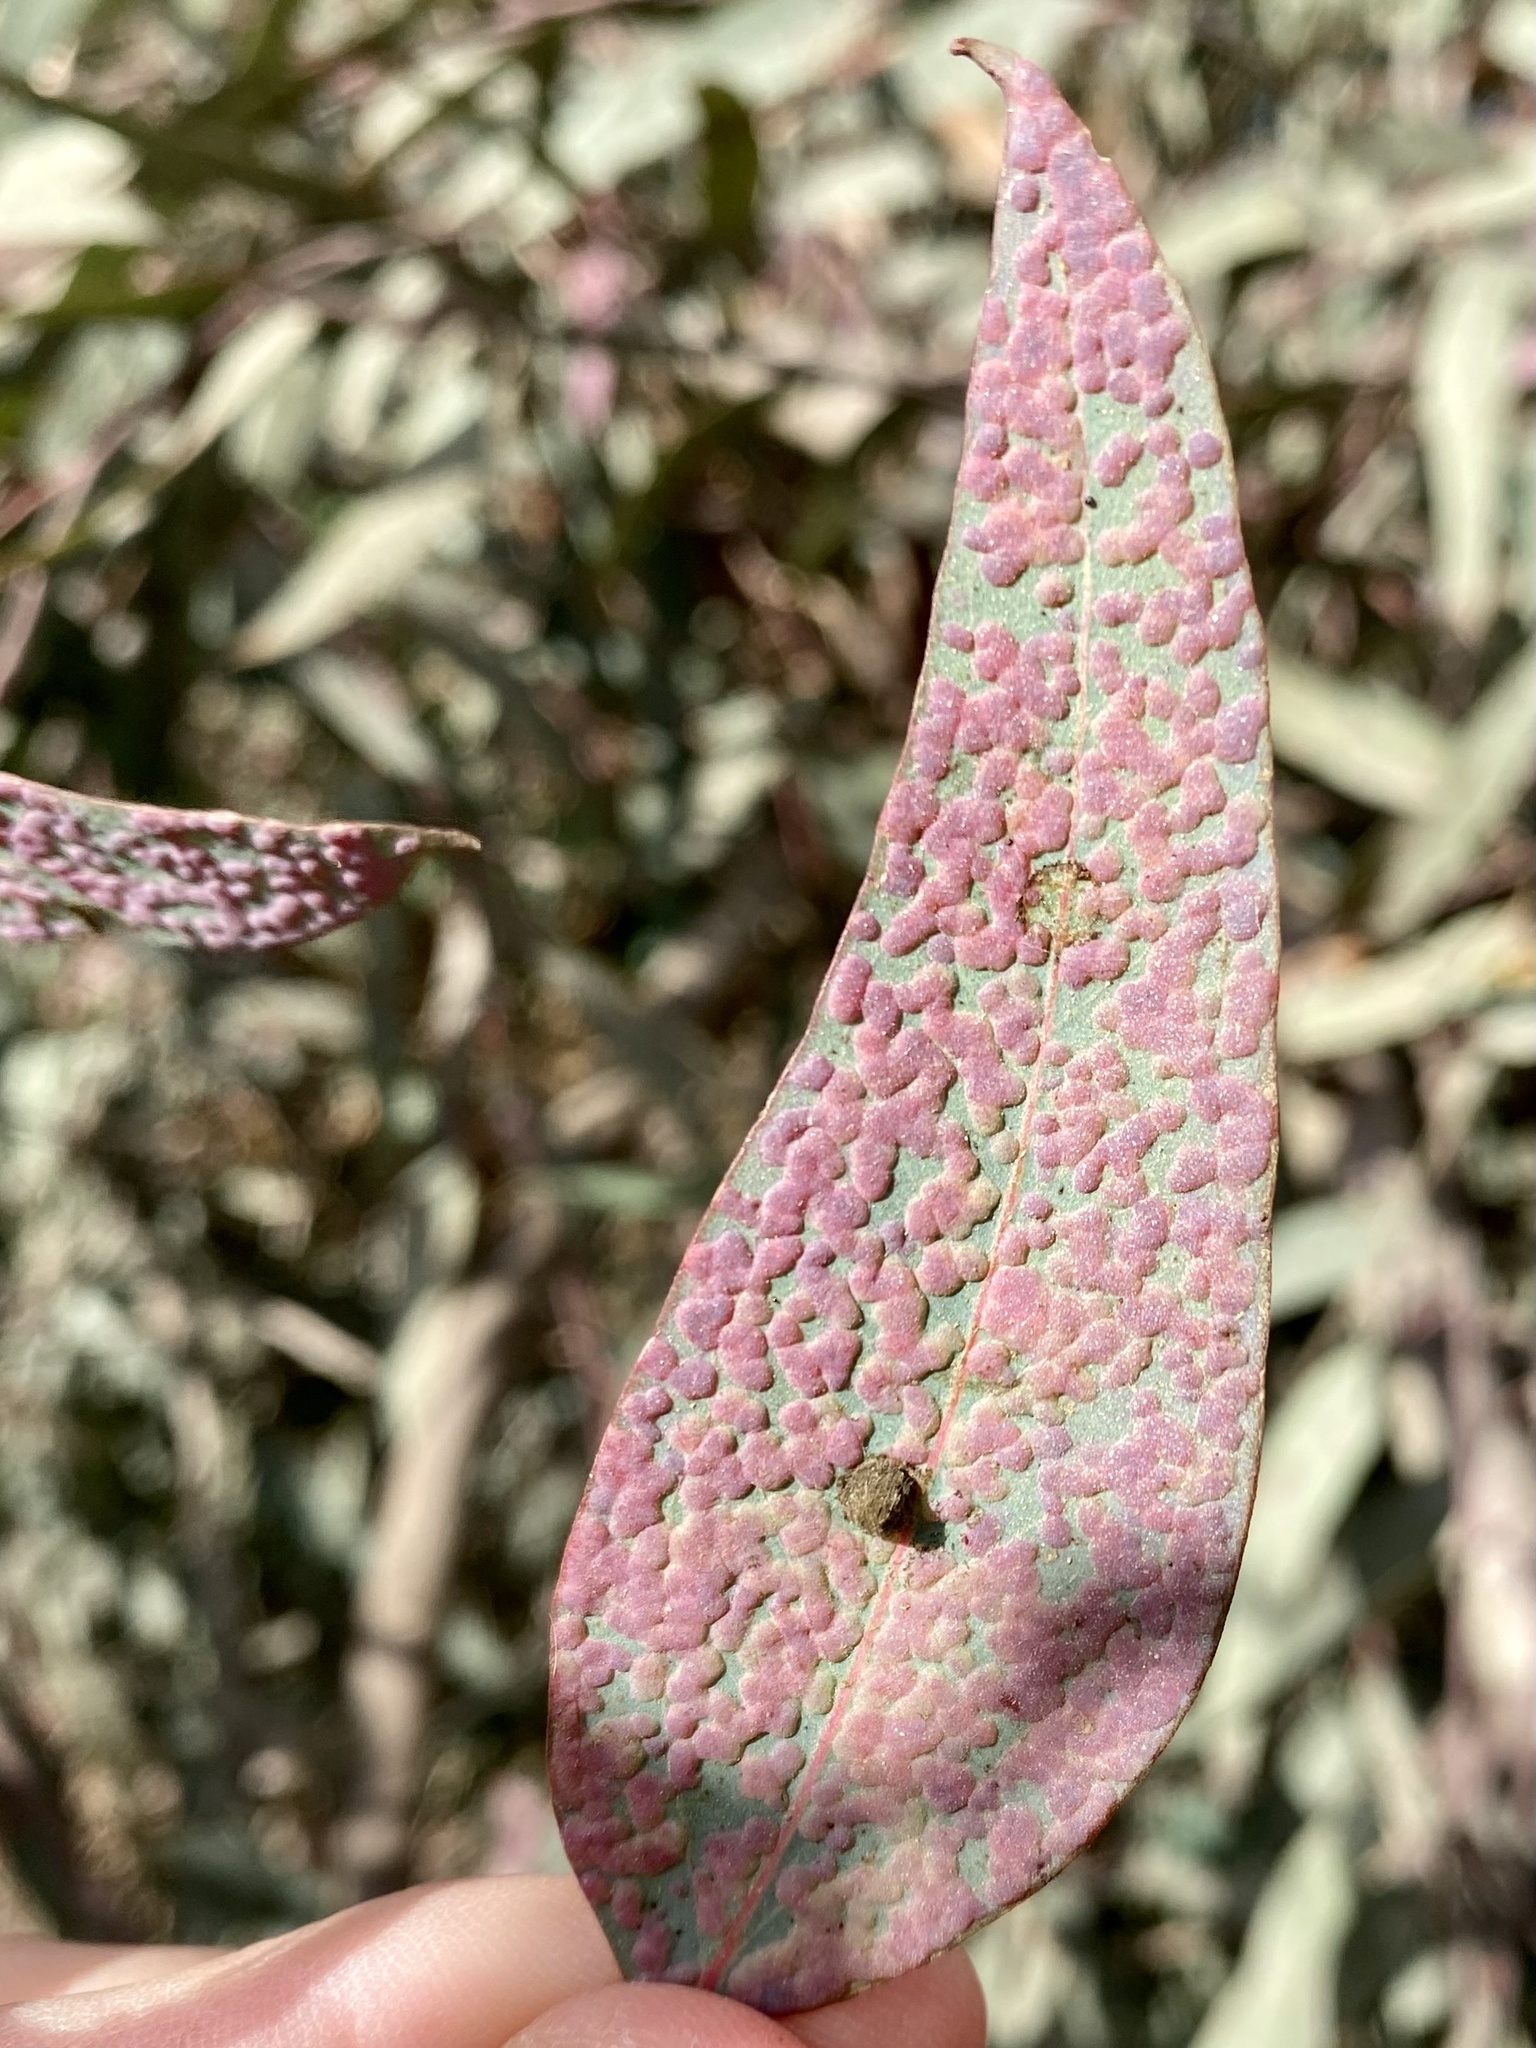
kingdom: Animalia
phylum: Arthropoda
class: Insecta
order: Hymenoptera
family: Eulophidae
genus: Ophelimus
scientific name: Ophelimus maskelli
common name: Gall wasp
